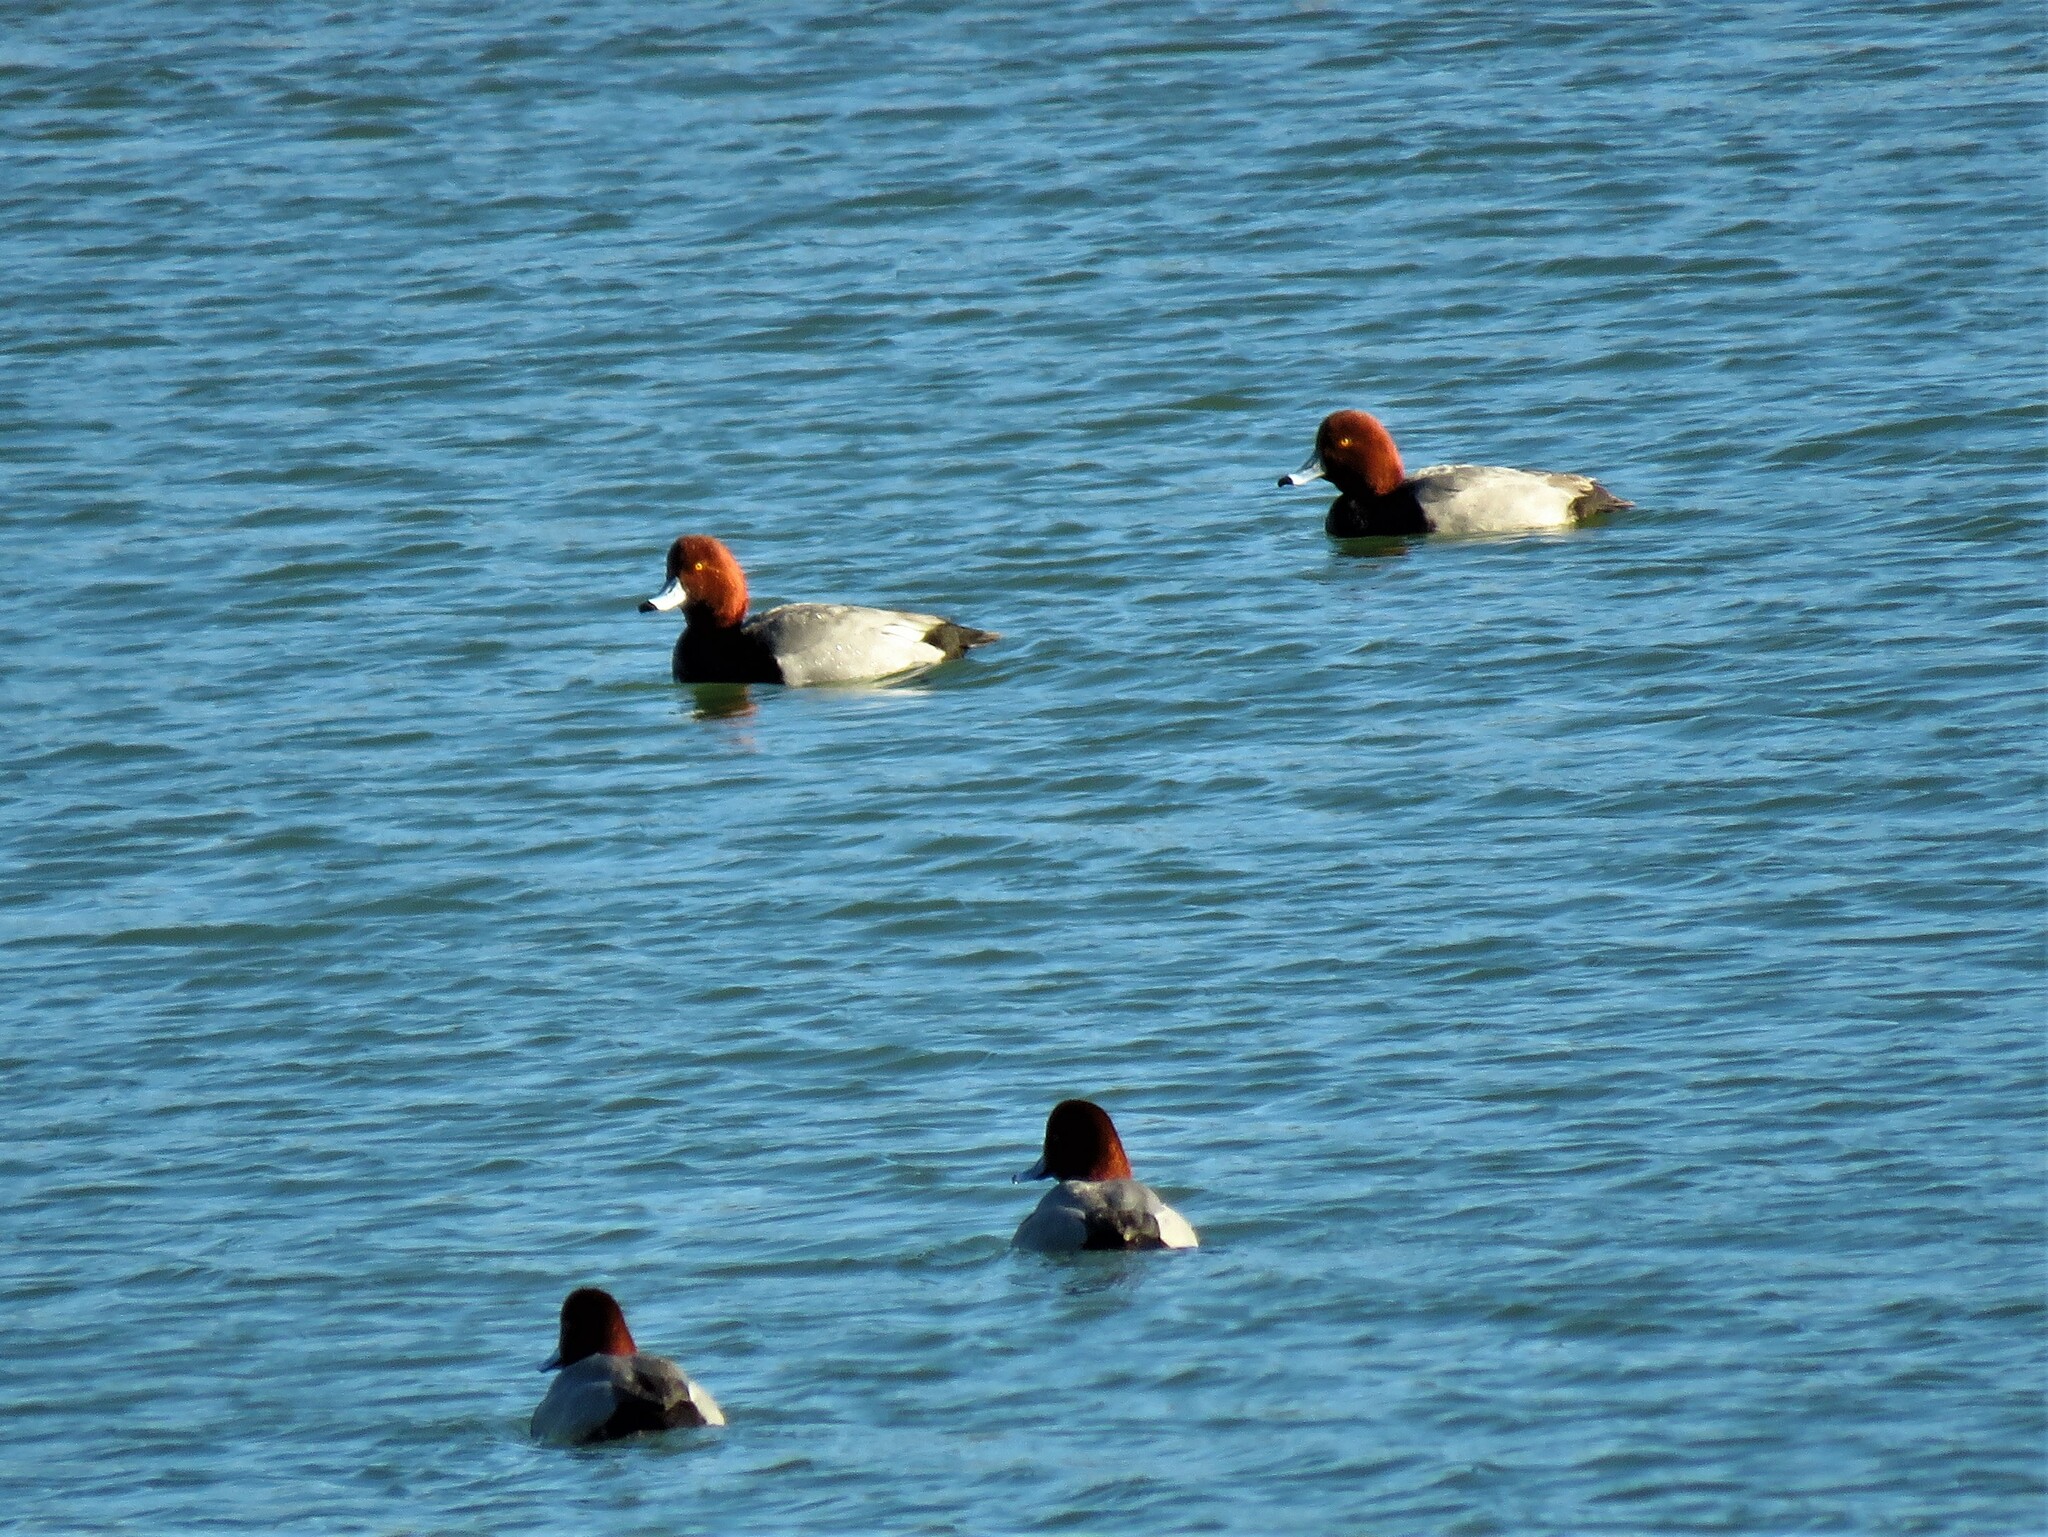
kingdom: Animalia
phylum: Chordata
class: Aves
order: Anseriformes
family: Anatidae
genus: Aythya
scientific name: Aythya americana
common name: Redhead
